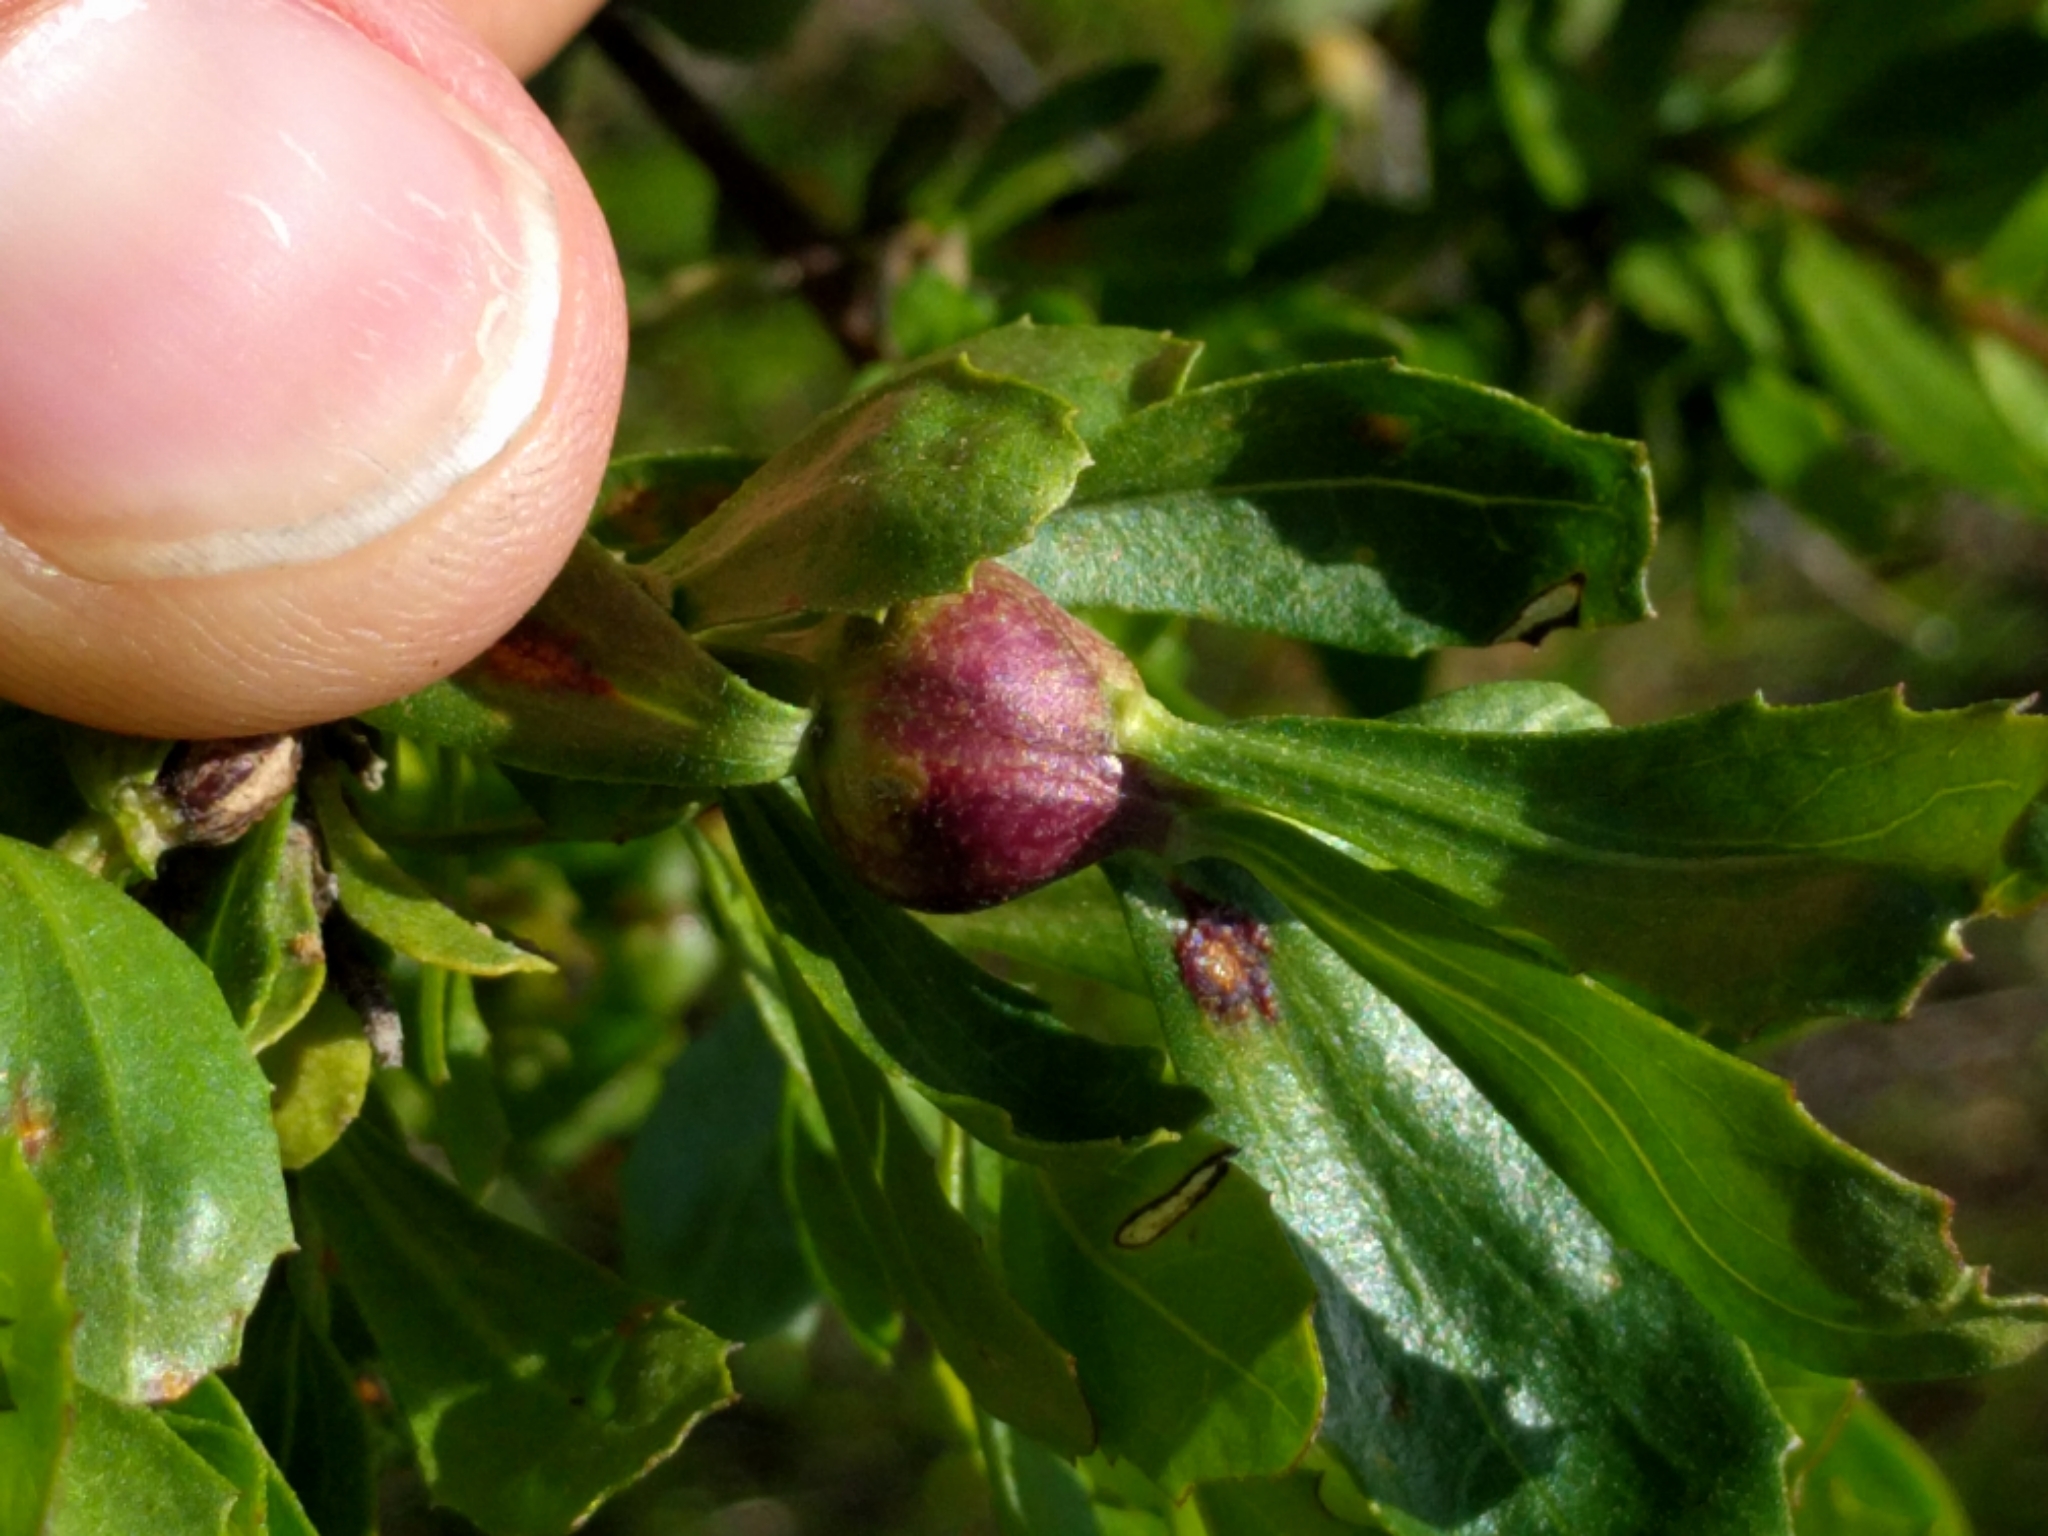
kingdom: Animalia
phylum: Arthropoda
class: Insecta
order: Lepidoptera
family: Gelechiidae
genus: Gnorimoschema
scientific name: Gnorimoschema baccharisella
